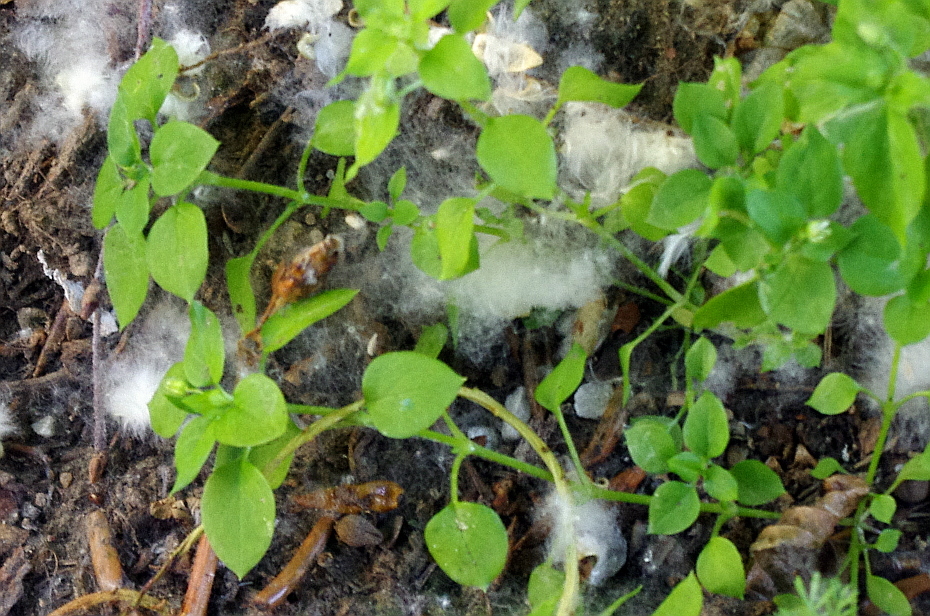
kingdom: Plantae
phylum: Tracheophyta
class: Magnoliopsida
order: Caryophyllales
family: Caryophyllaceae
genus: Stellaria
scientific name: Stellaria media
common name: Common chickweed
